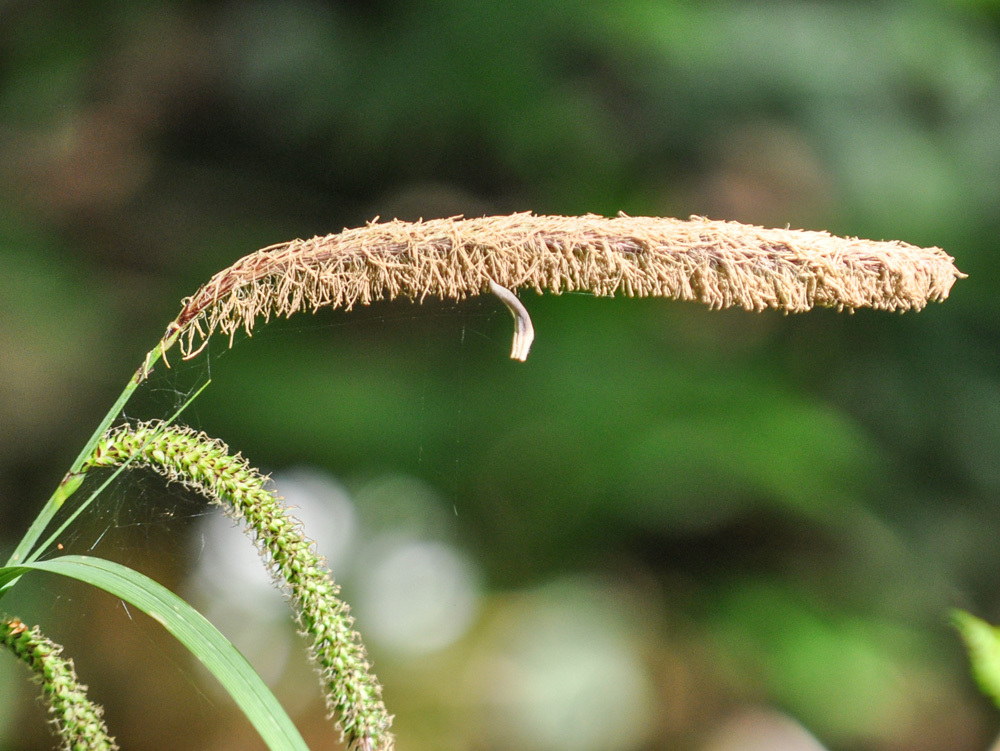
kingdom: Plantae
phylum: Tracheophyta
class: Liliopsida
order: Poales
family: Cyperaceae
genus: Carex
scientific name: Carex pendula
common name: Pendulous sedge
